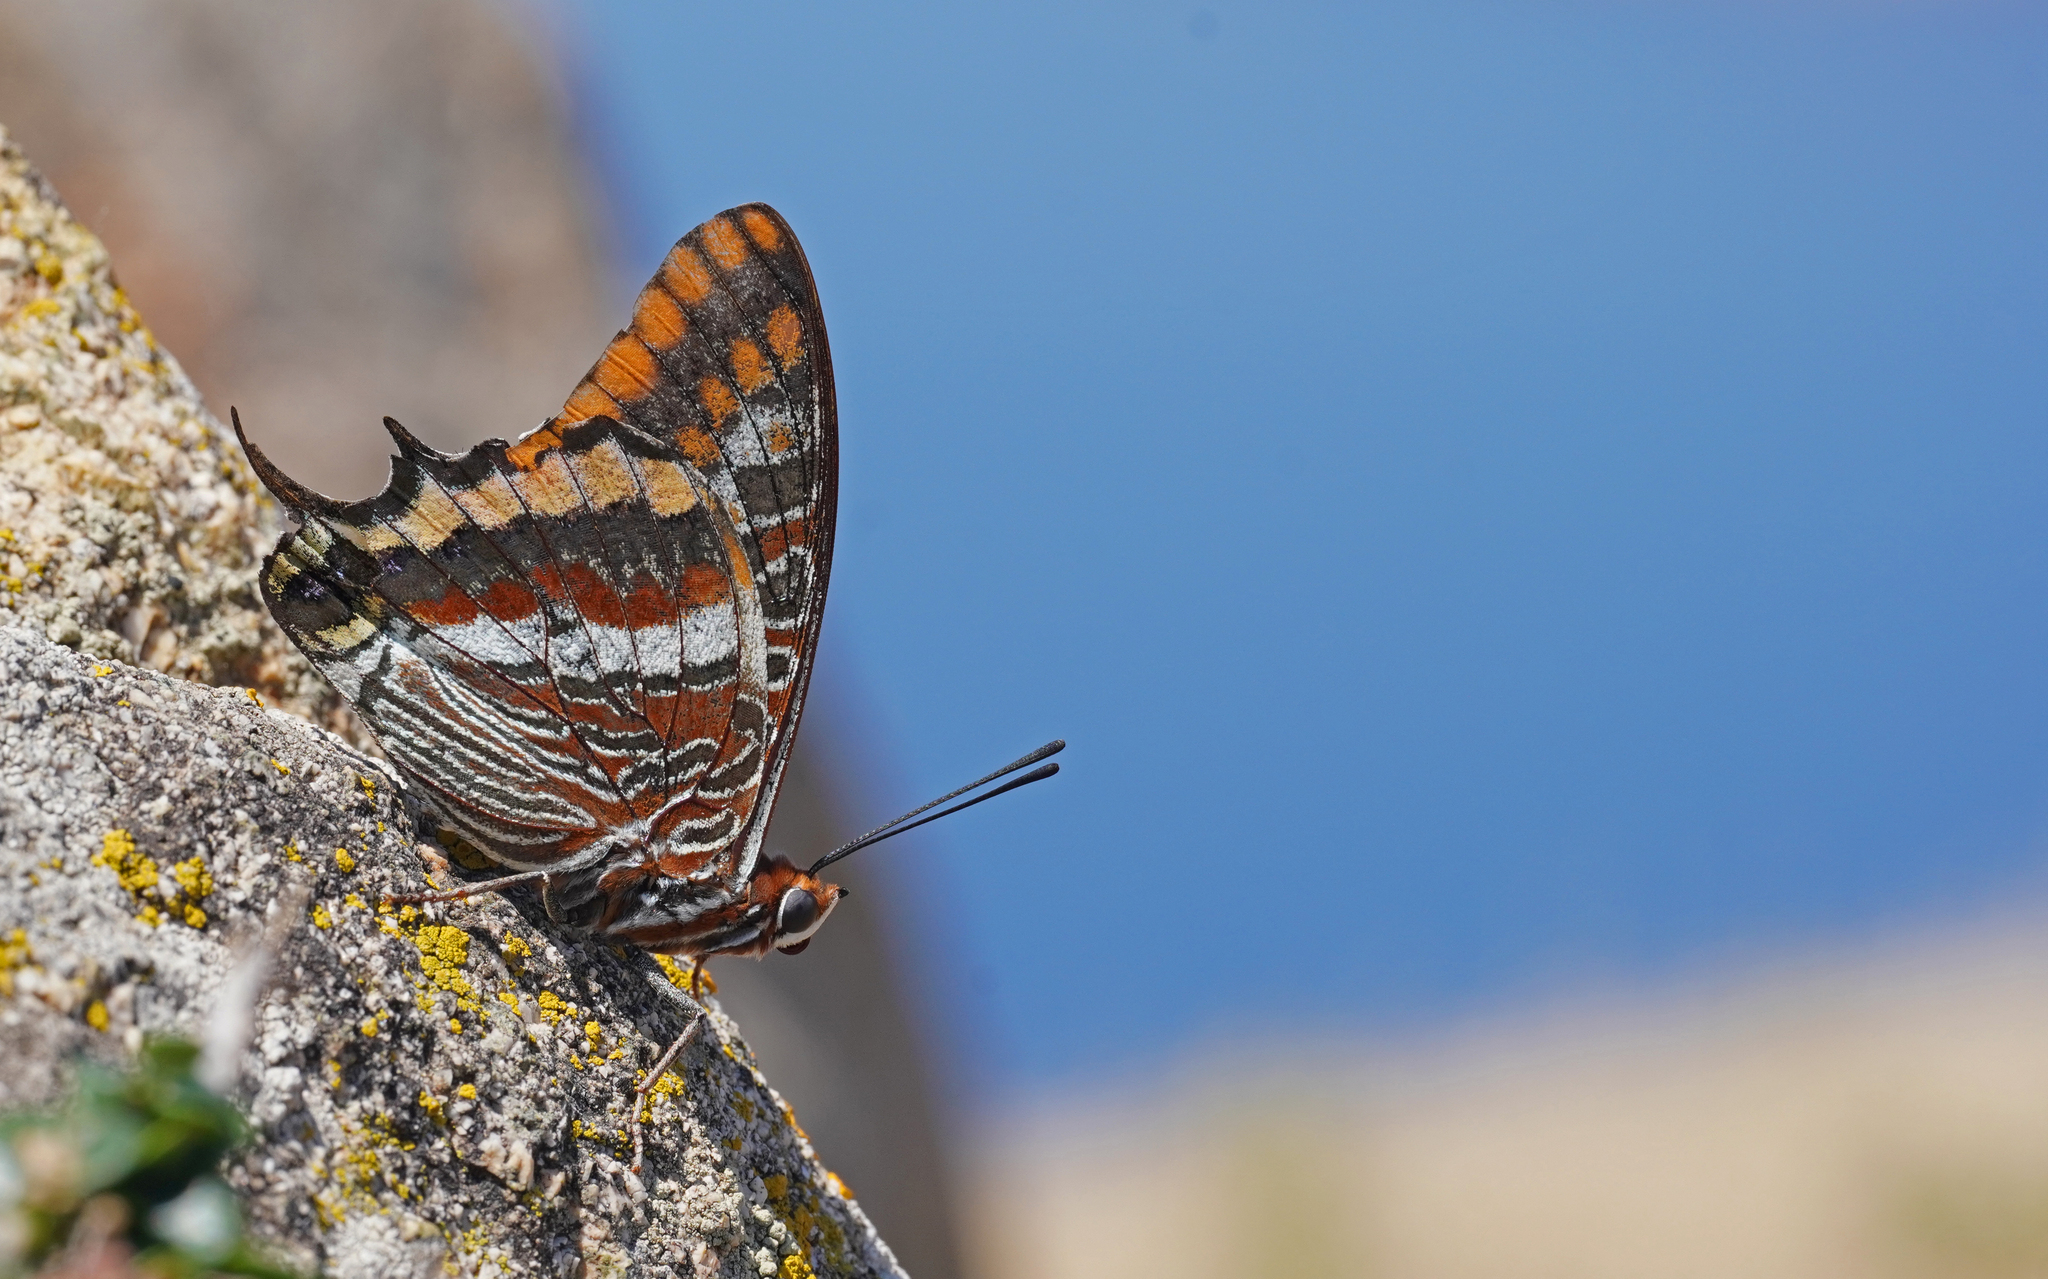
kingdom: Animalia
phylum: Arthropoda
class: Insecta
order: Lepidoptera
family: Nymphalidae
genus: Charaxes
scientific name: Charaxes jasius
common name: Two tailed pasha
